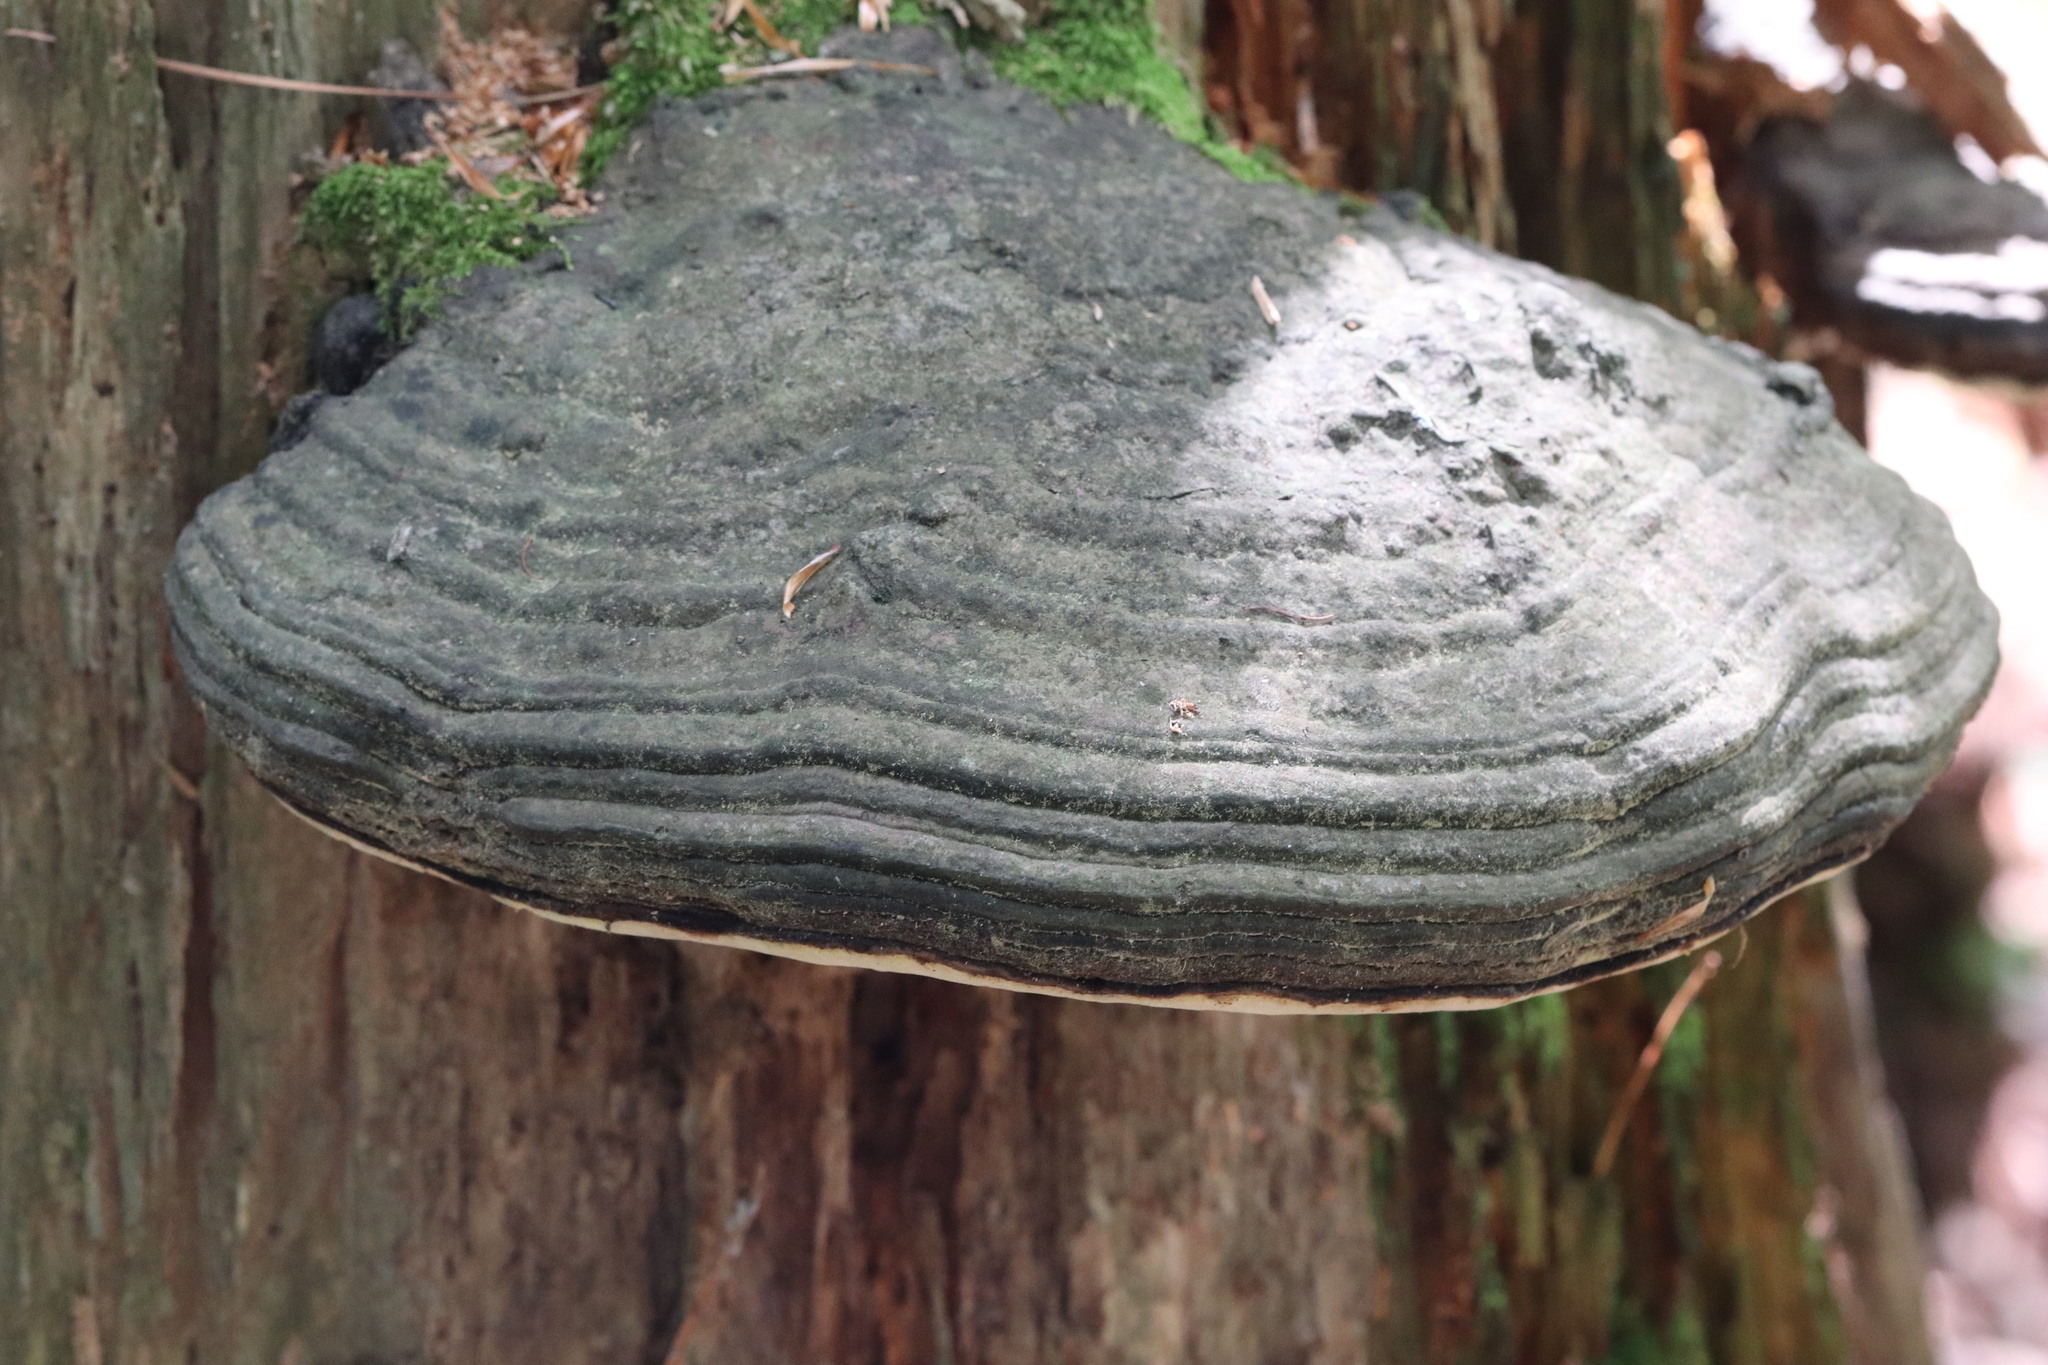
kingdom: Fungi
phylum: Basidiomycota
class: Agaricomycetes
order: Polyporales
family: Polyporaceae
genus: Fomes
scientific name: Fomes fomentarius
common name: Hoof fungus
